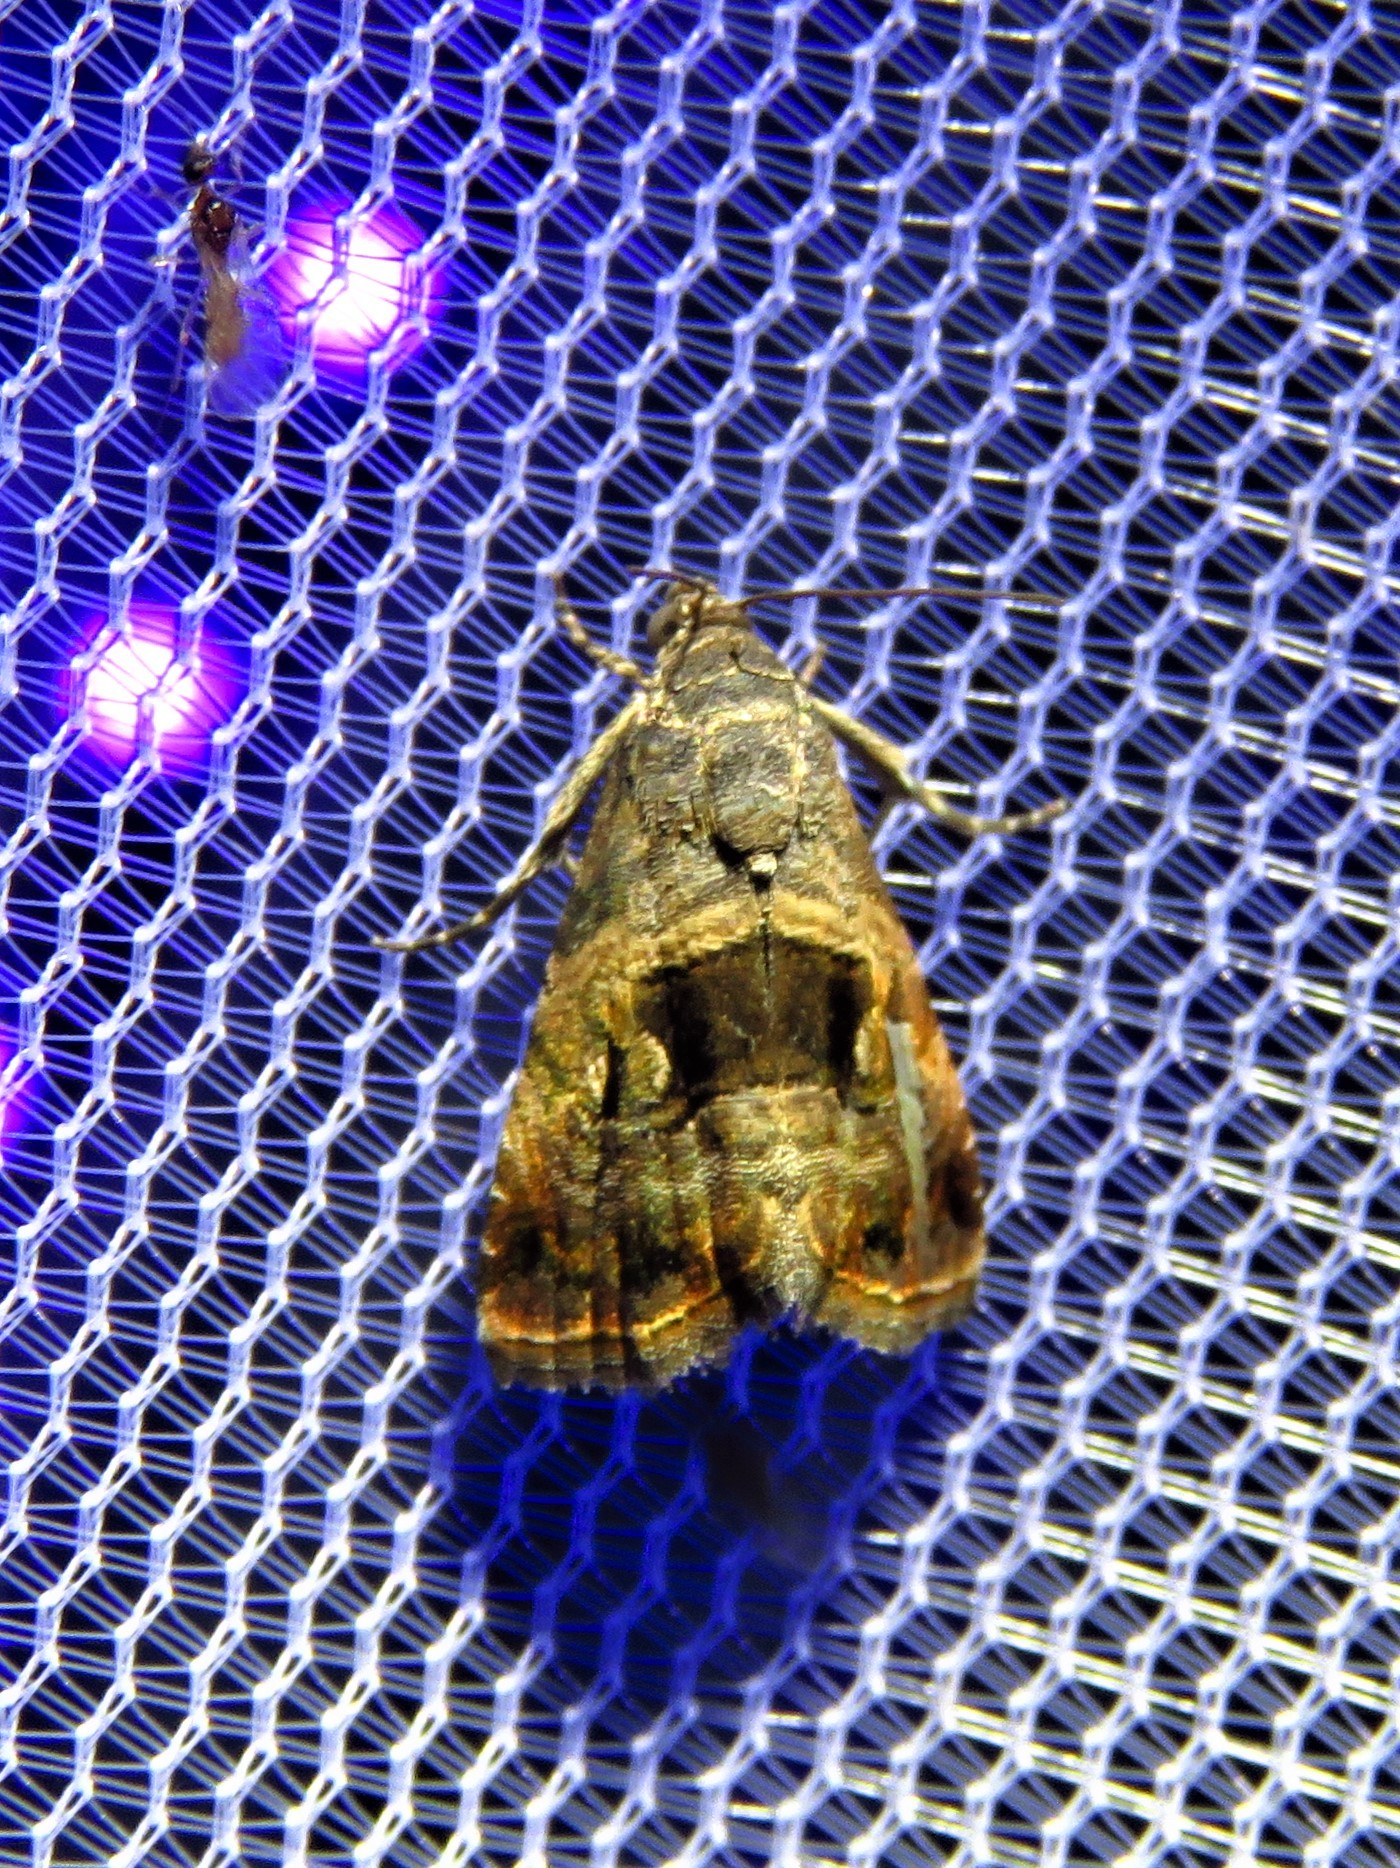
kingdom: Animalia
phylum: Arthropoda
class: Insecta
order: Lepidoptera
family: Noctuidae
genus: Tripudia
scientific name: Tripudia quadrifera
